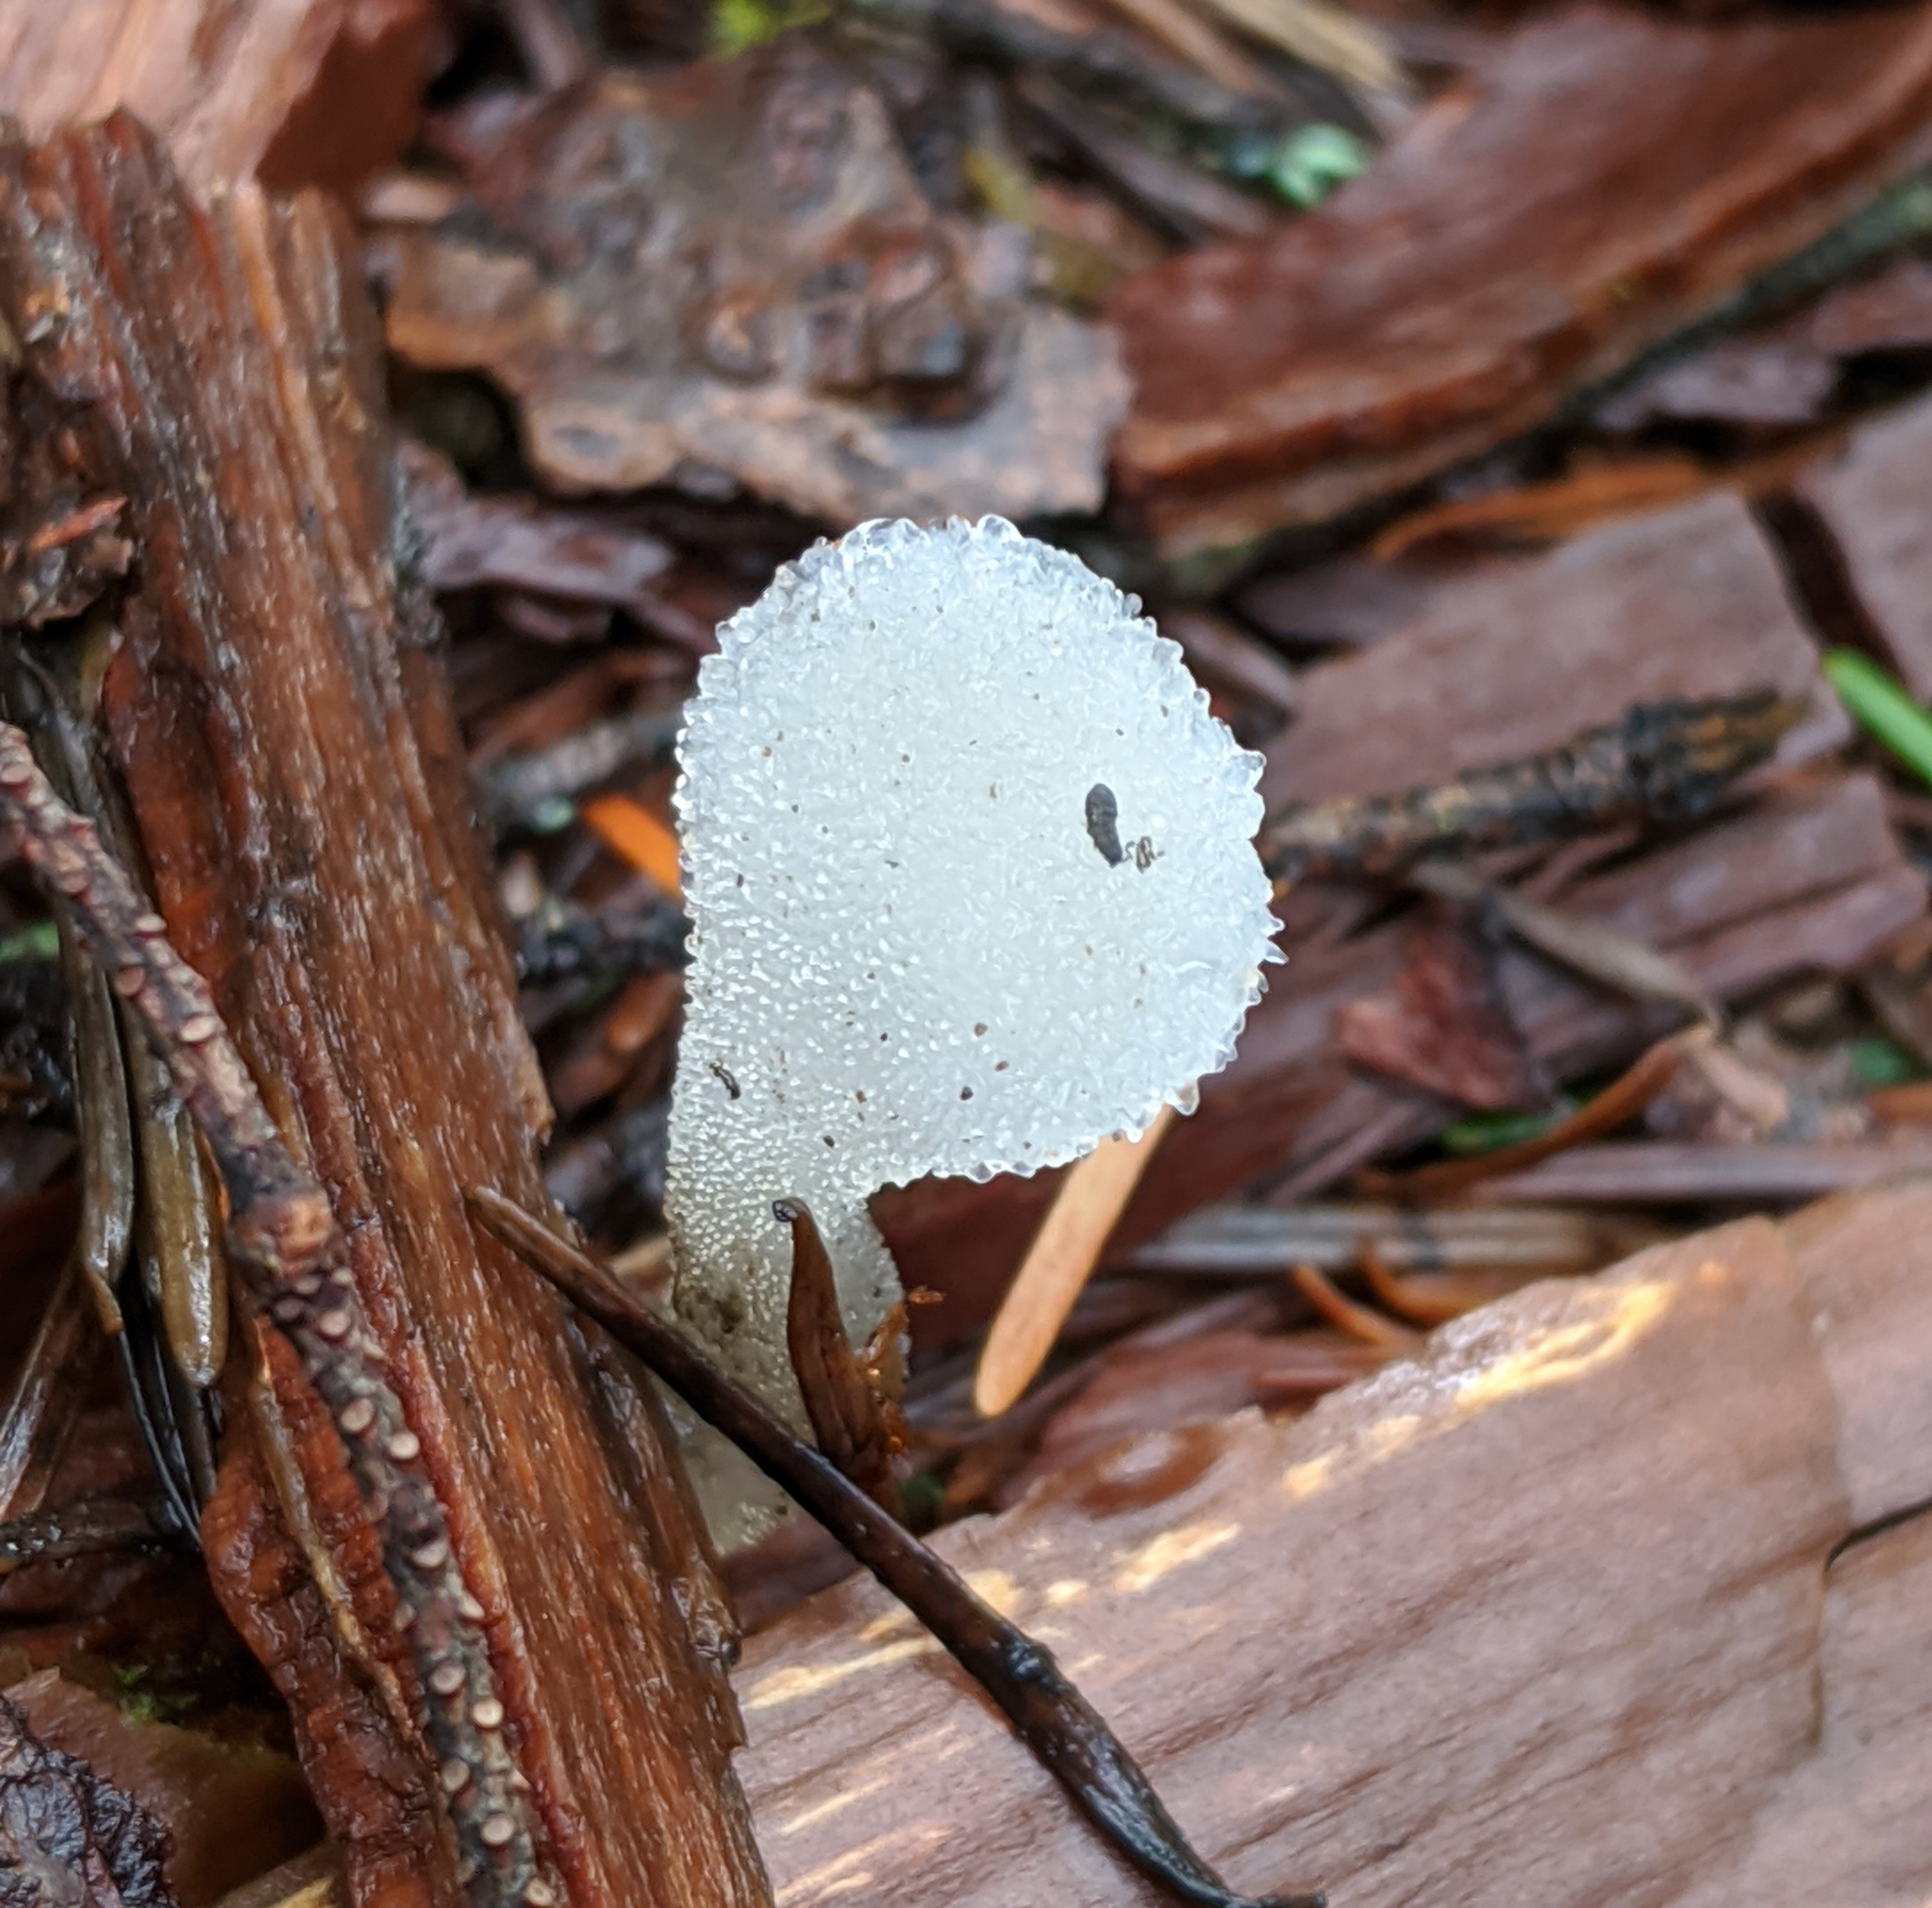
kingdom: Fungi
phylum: Basidiomycota
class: Agaricomycetes
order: Auriculariales
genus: Pseudohydnum
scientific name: Pseudohydnum gelatinosum
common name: Jelly tongue
